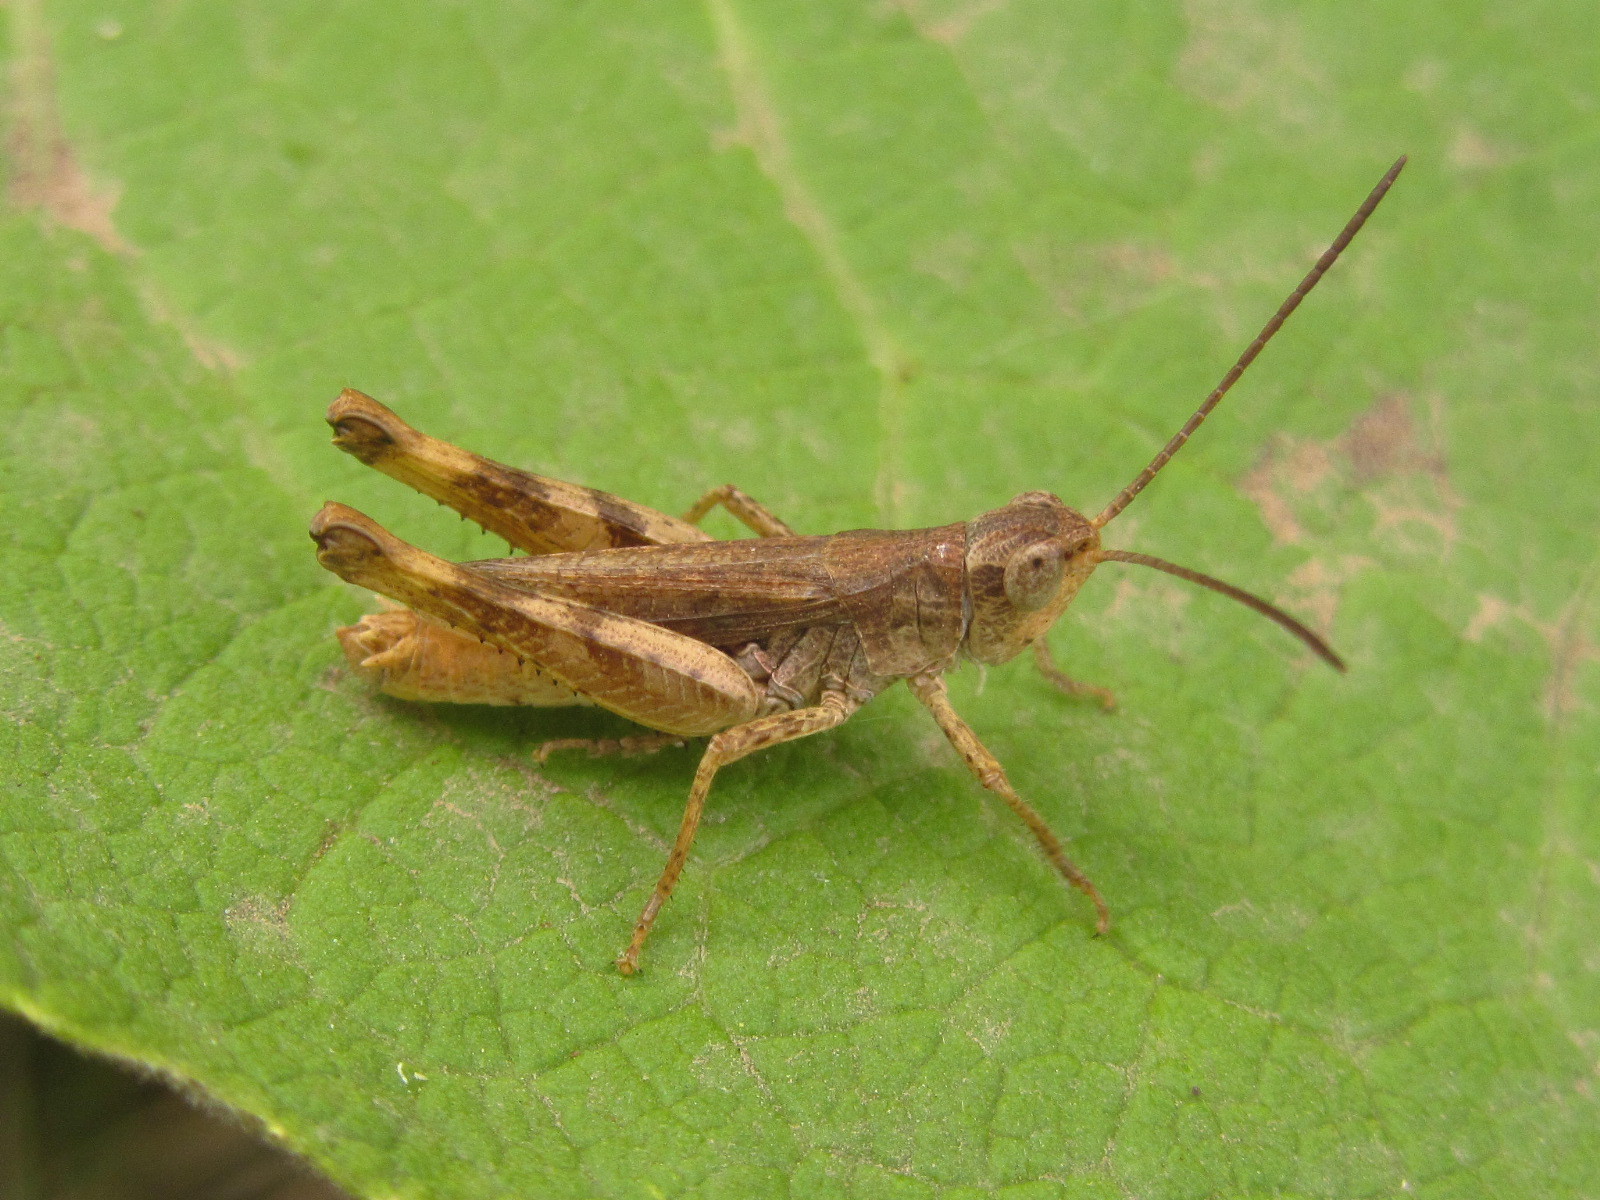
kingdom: Animalia
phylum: Arthropoda
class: Insecta
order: Orthoptera
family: Acrididae
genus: Chorthippus
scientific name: Chorthippus macrocerus
